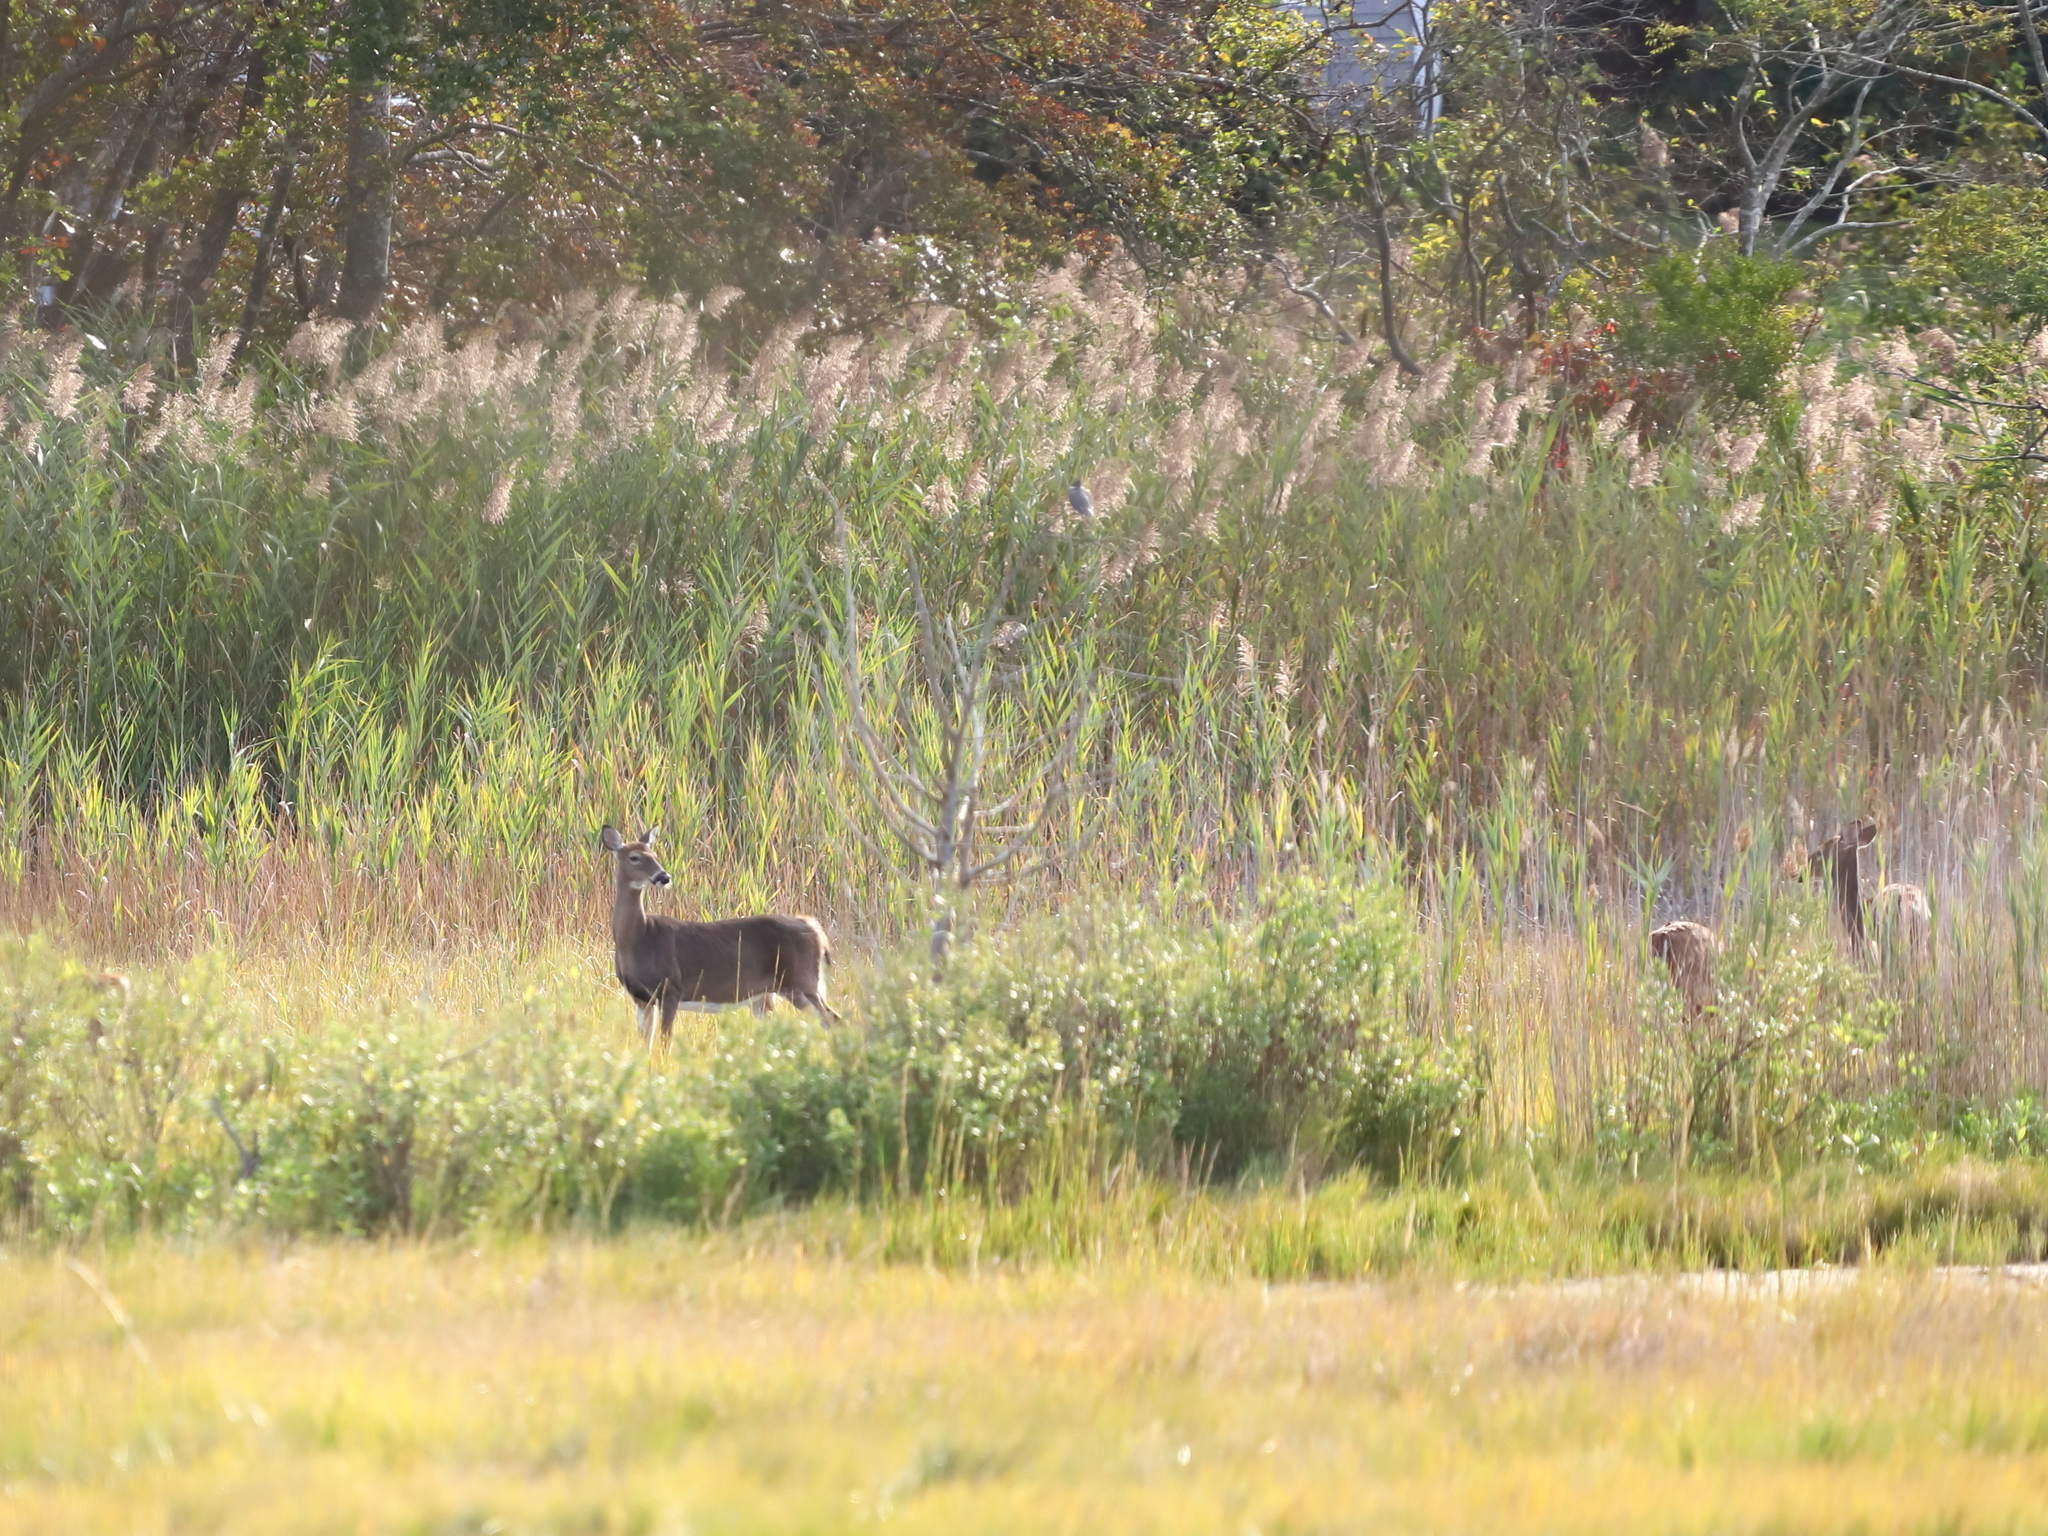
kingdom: Animalia
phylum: Chordata
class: Mammalia
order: Artiodactyla
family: Cervidae
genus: Odocoileus
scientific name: Odocoileus virginianus
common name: White-tailed deer
